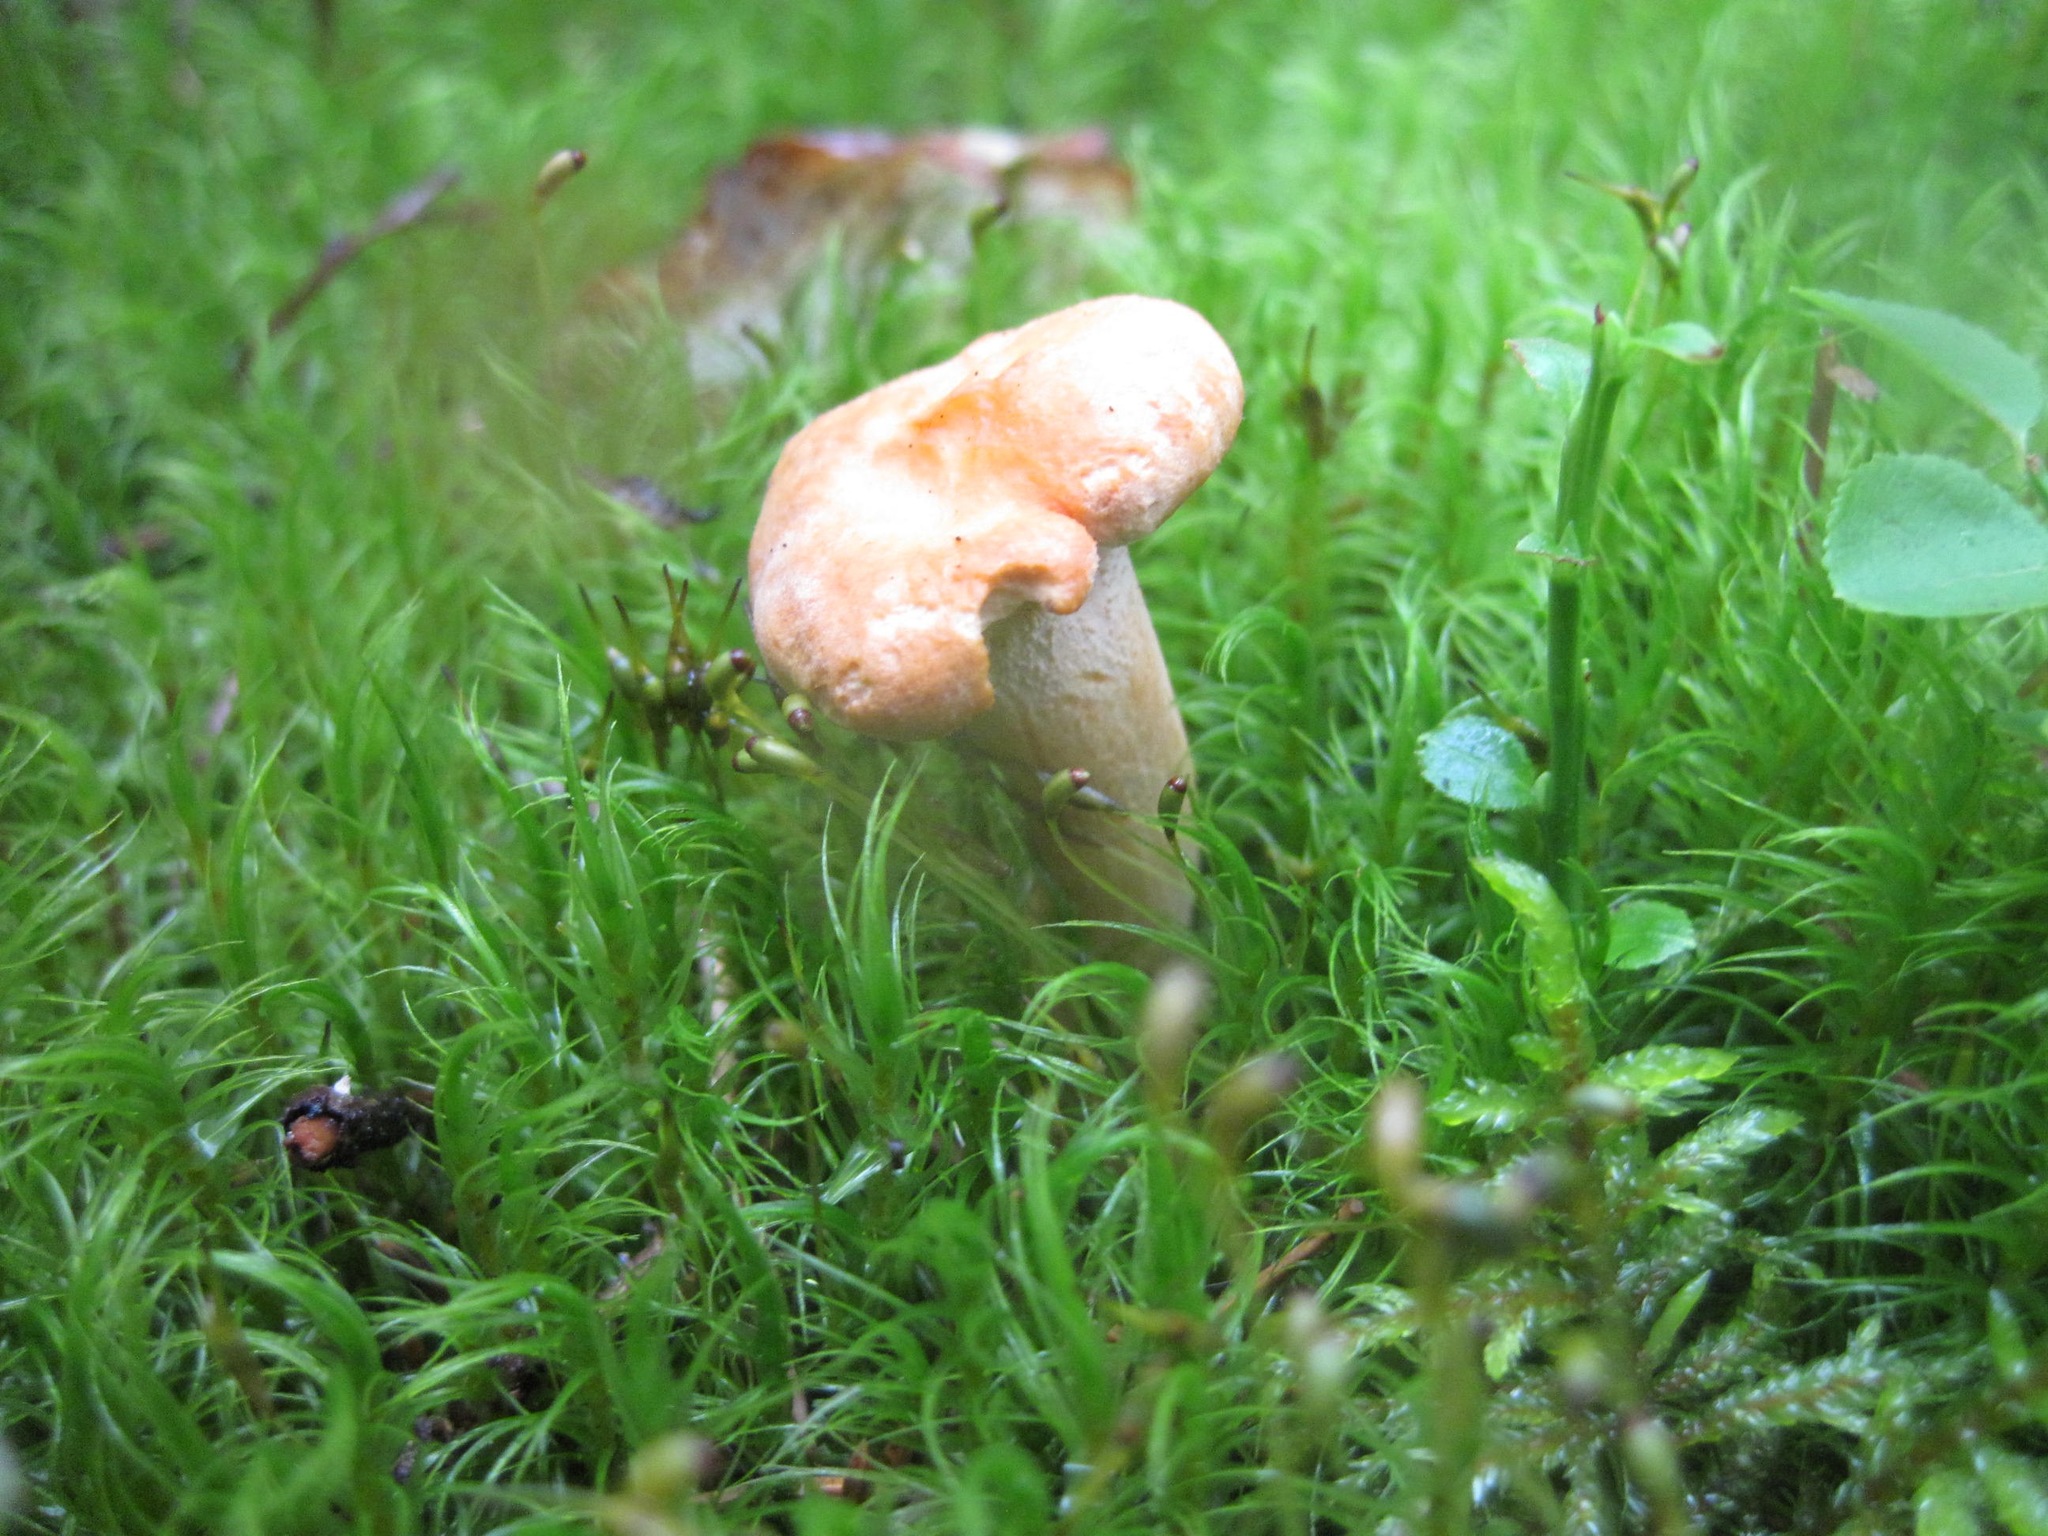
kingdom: Fungi
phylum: Basidiomycota
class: Agaricomycetes
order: Cantharellales
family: Hydnaceae
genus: Hydnum
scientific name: Hydnum repandum
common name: Wood hedgehog
